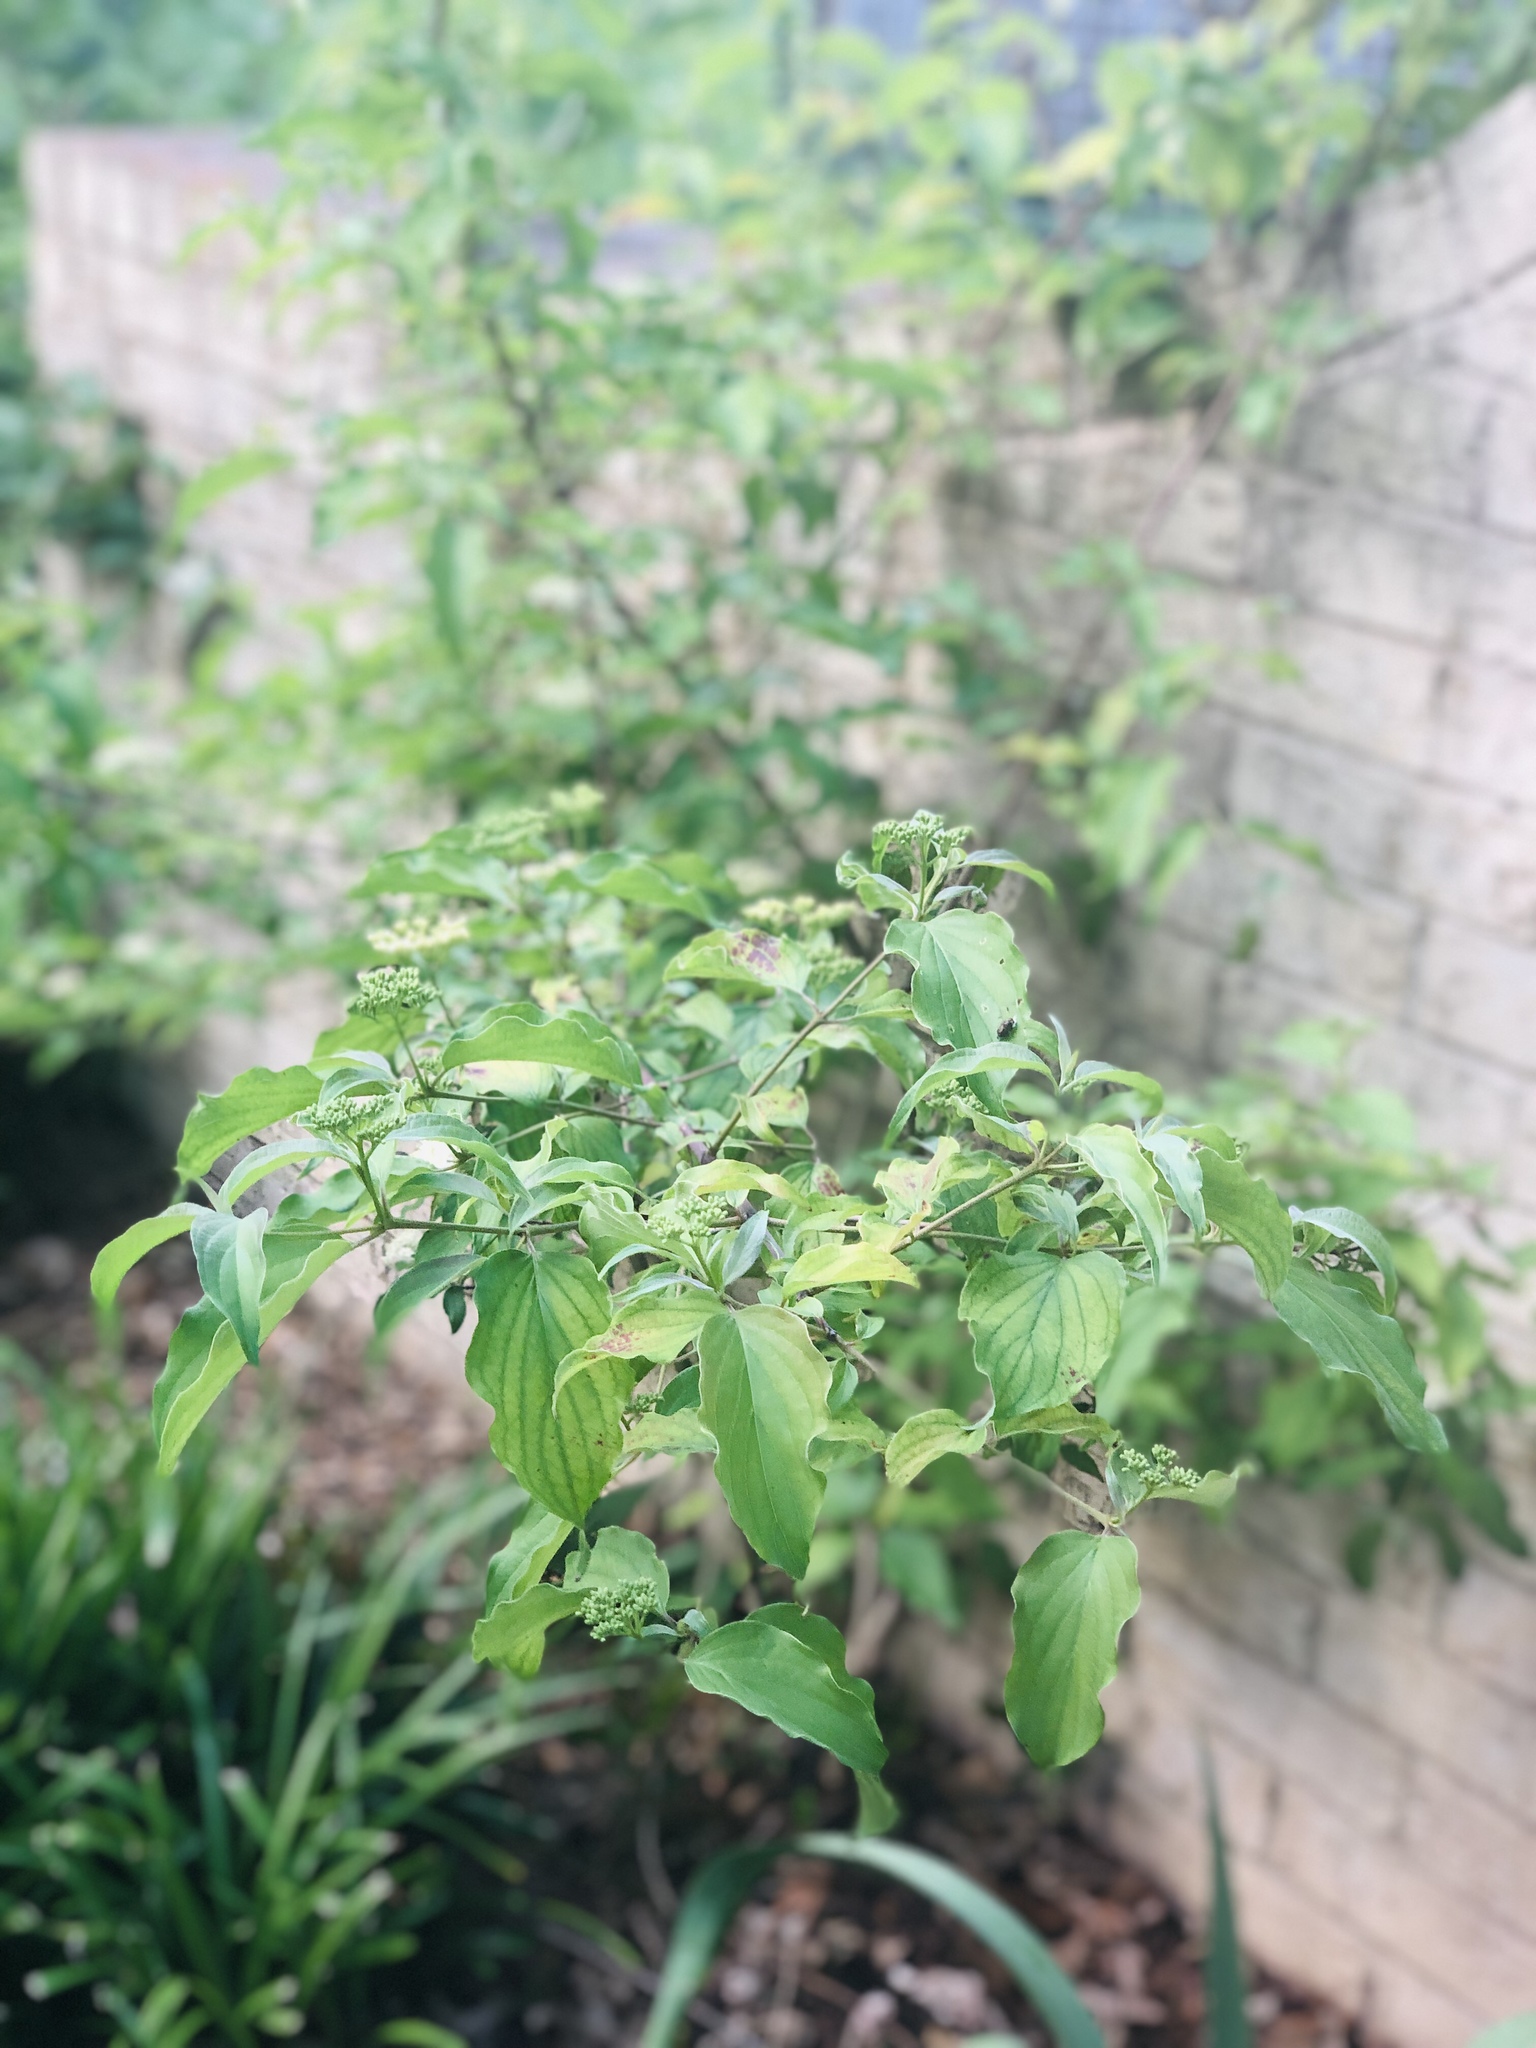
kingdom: Plantae
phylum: Tracheophyta
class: Magnoliopsida
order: Cornales
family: Cornaceae
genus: Cornus
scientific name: Cornus drummondii
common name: Rough-leaf dogwood
